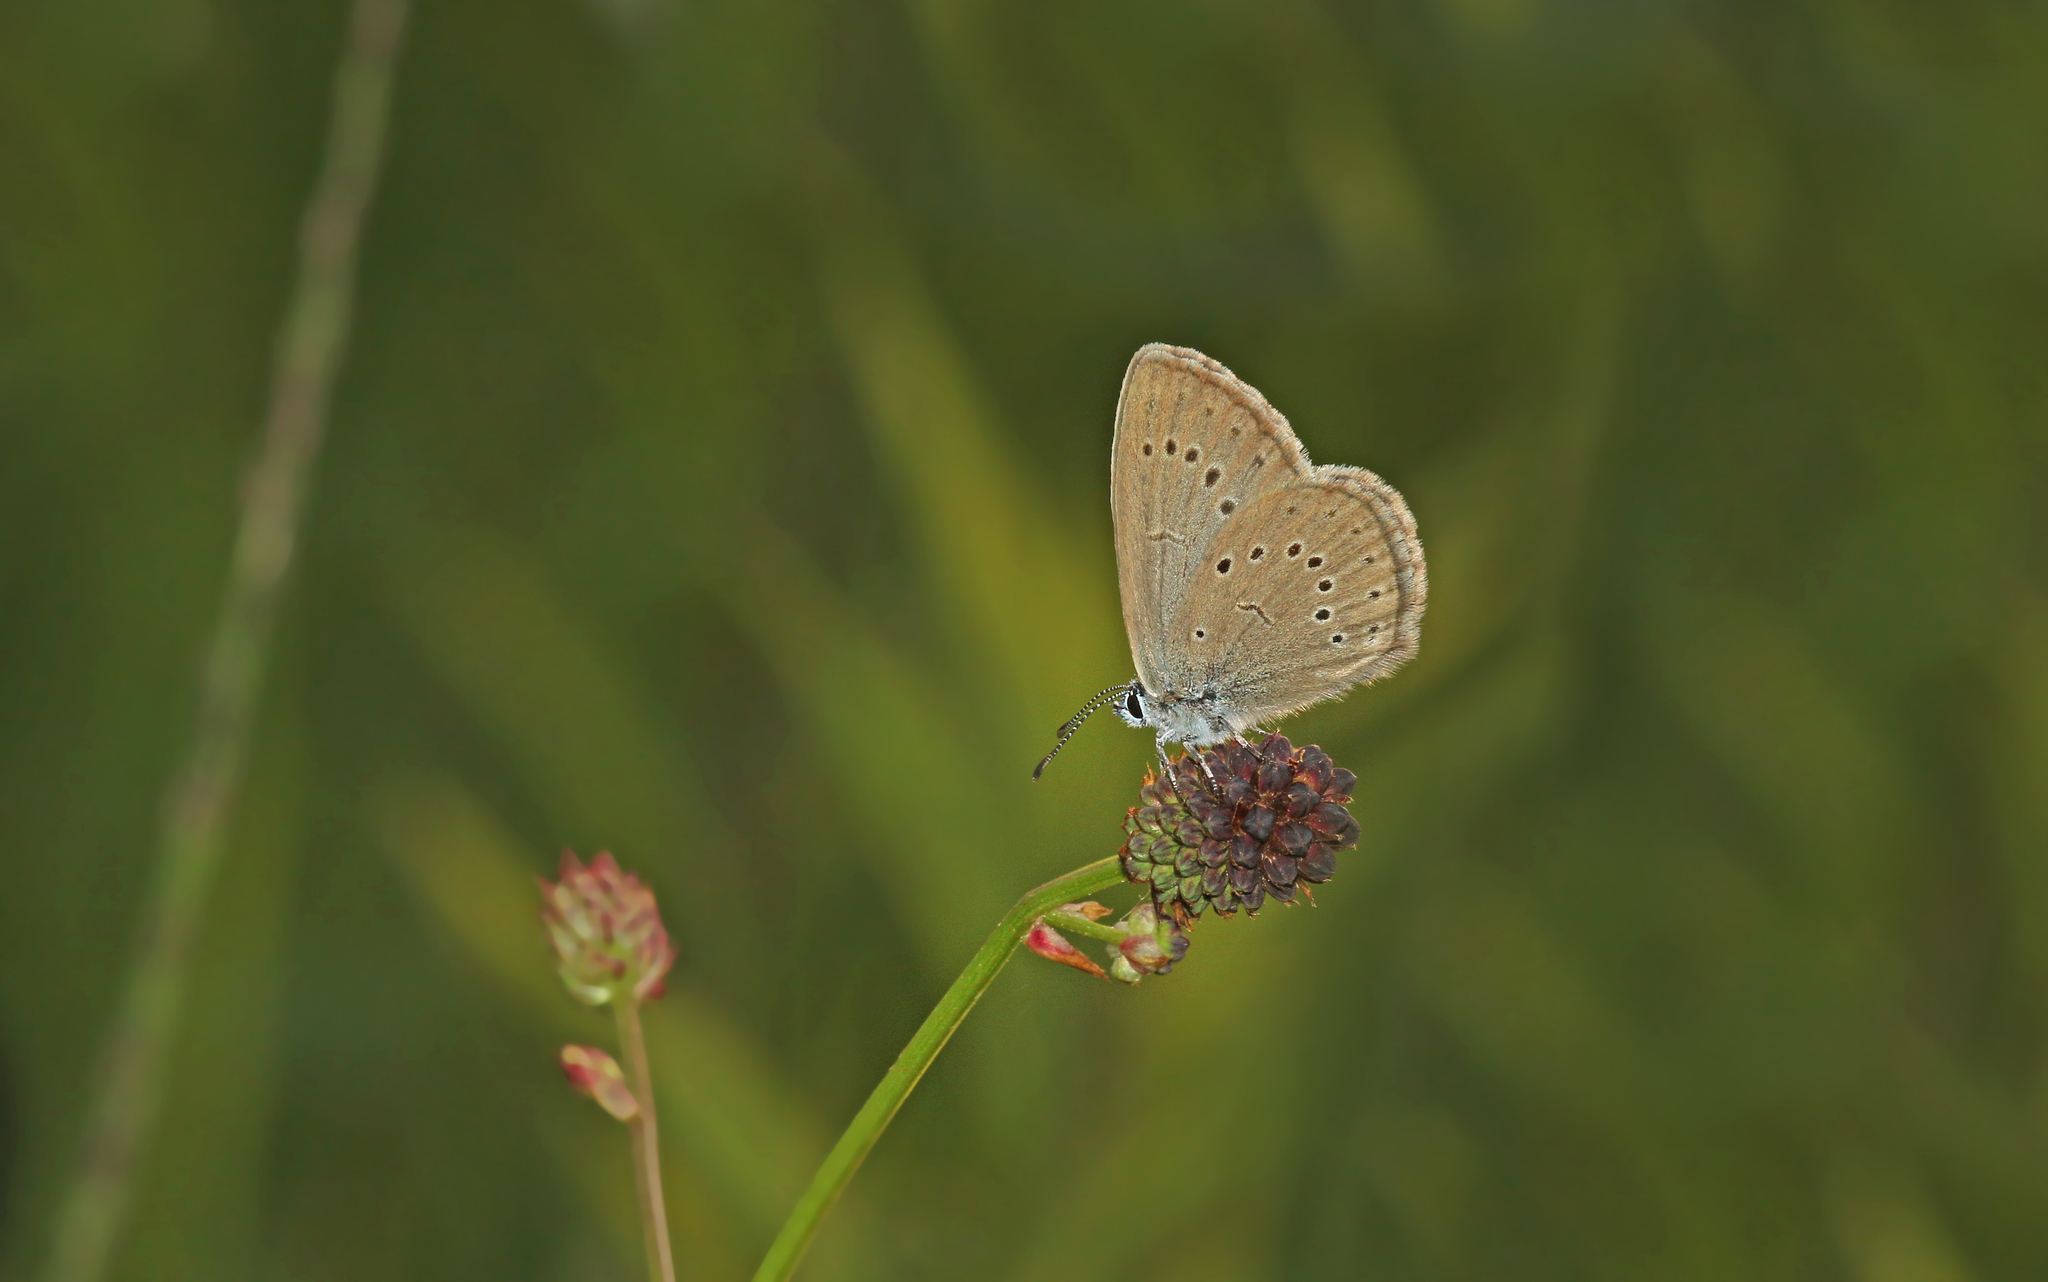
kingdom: Animalia
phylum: Arthropoda
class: Insecta
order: Lepidoptera
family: Lycaenidae
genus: Phengaris
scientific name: Phengaris teleius
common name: Scarce large blue
